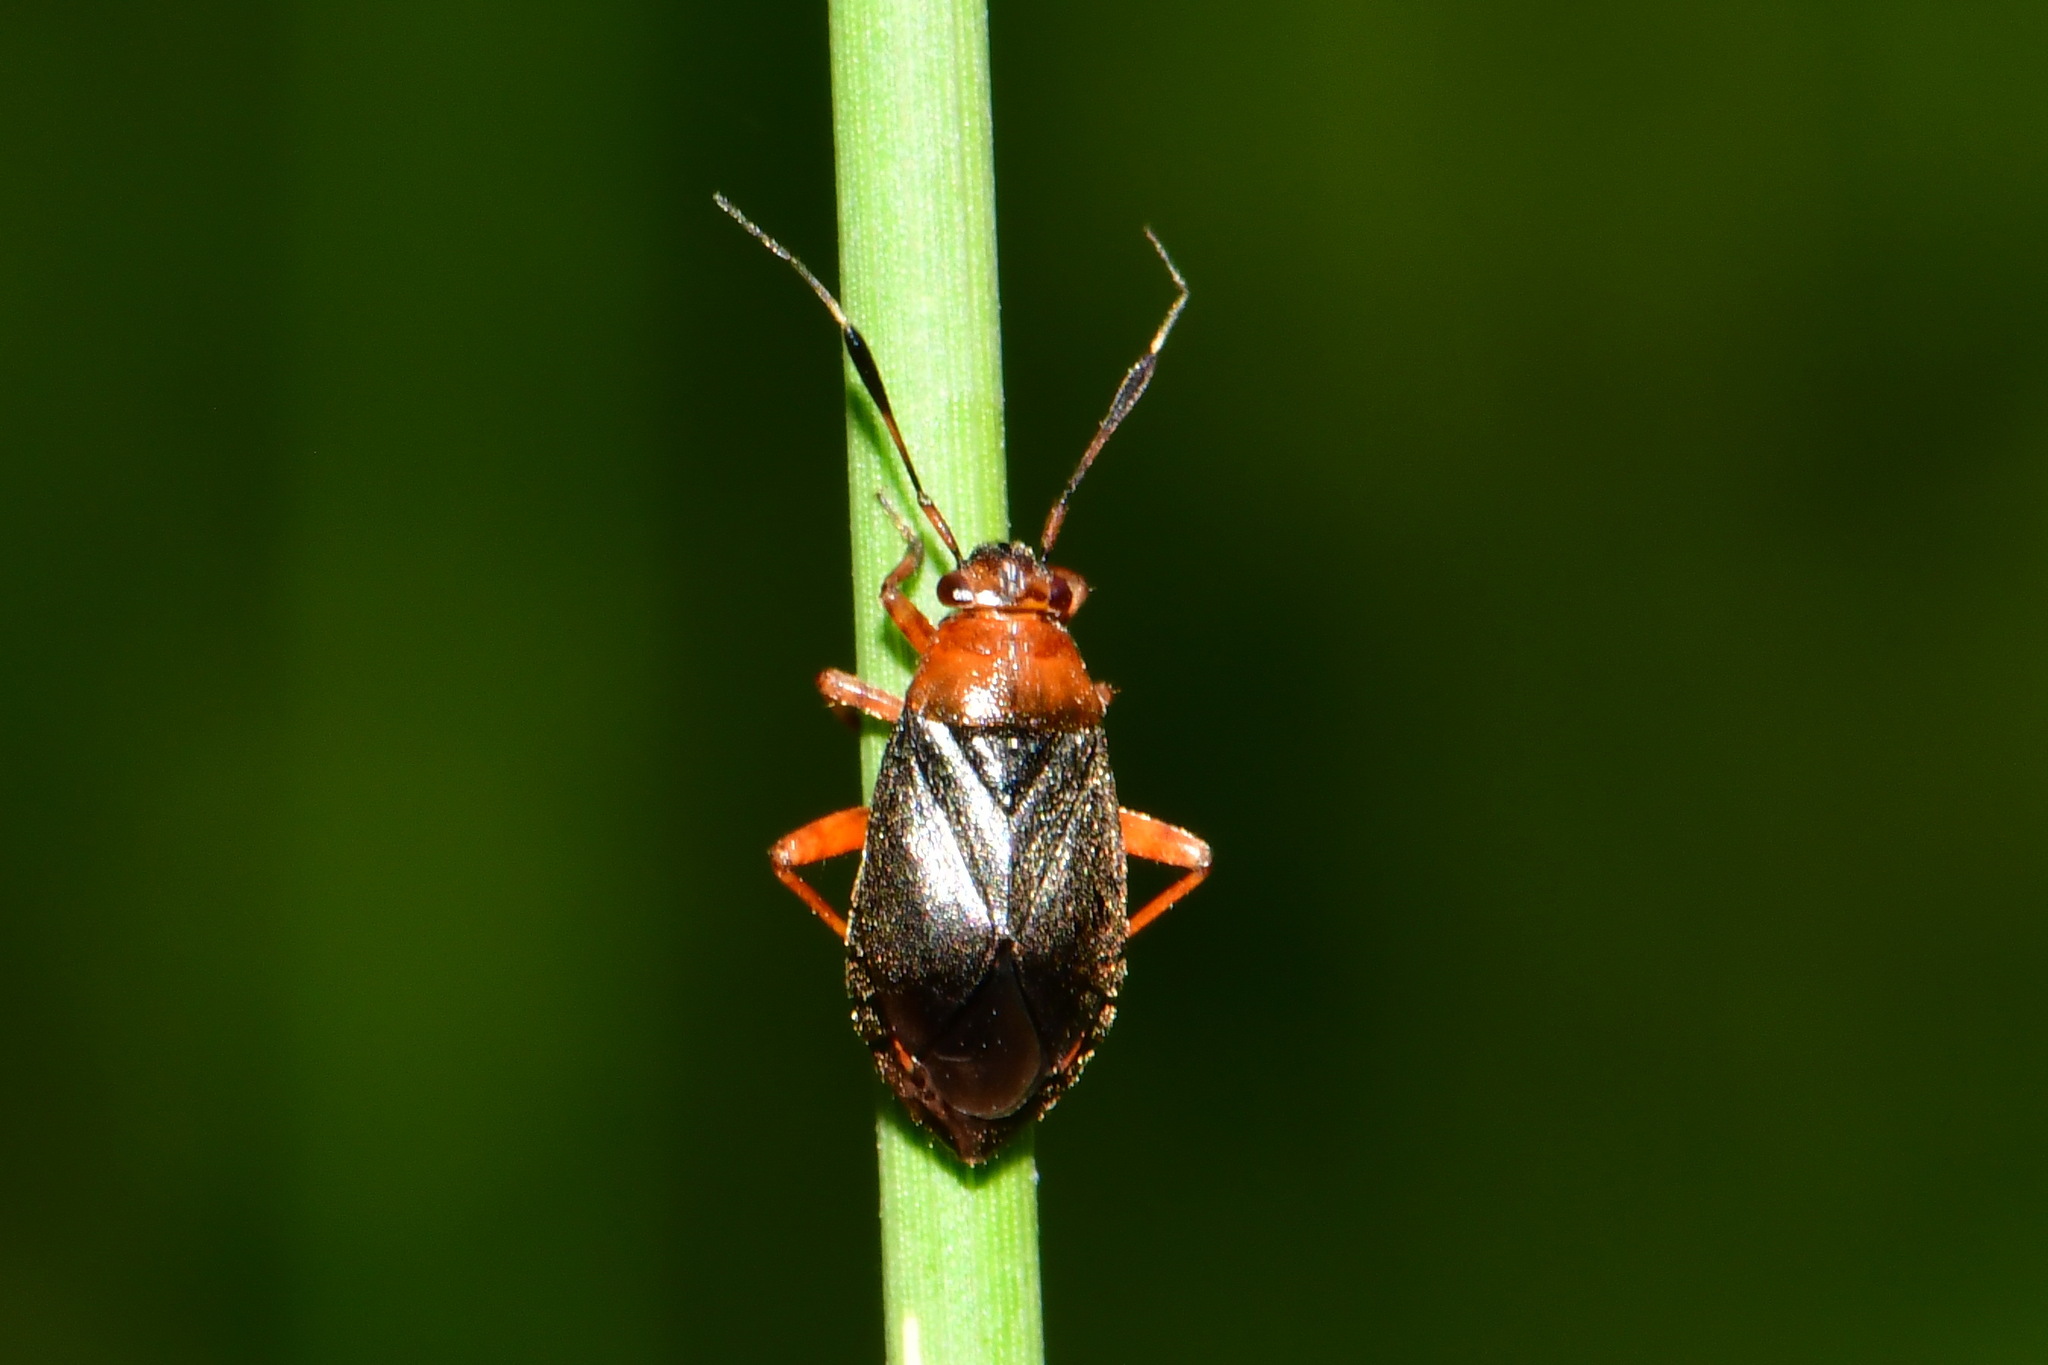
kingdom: Animalia
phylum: Arthropoda
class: Insecta
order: Hemiptera
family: Miridae
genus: Capsus
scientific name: Capsus ater
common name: Black plant bug
